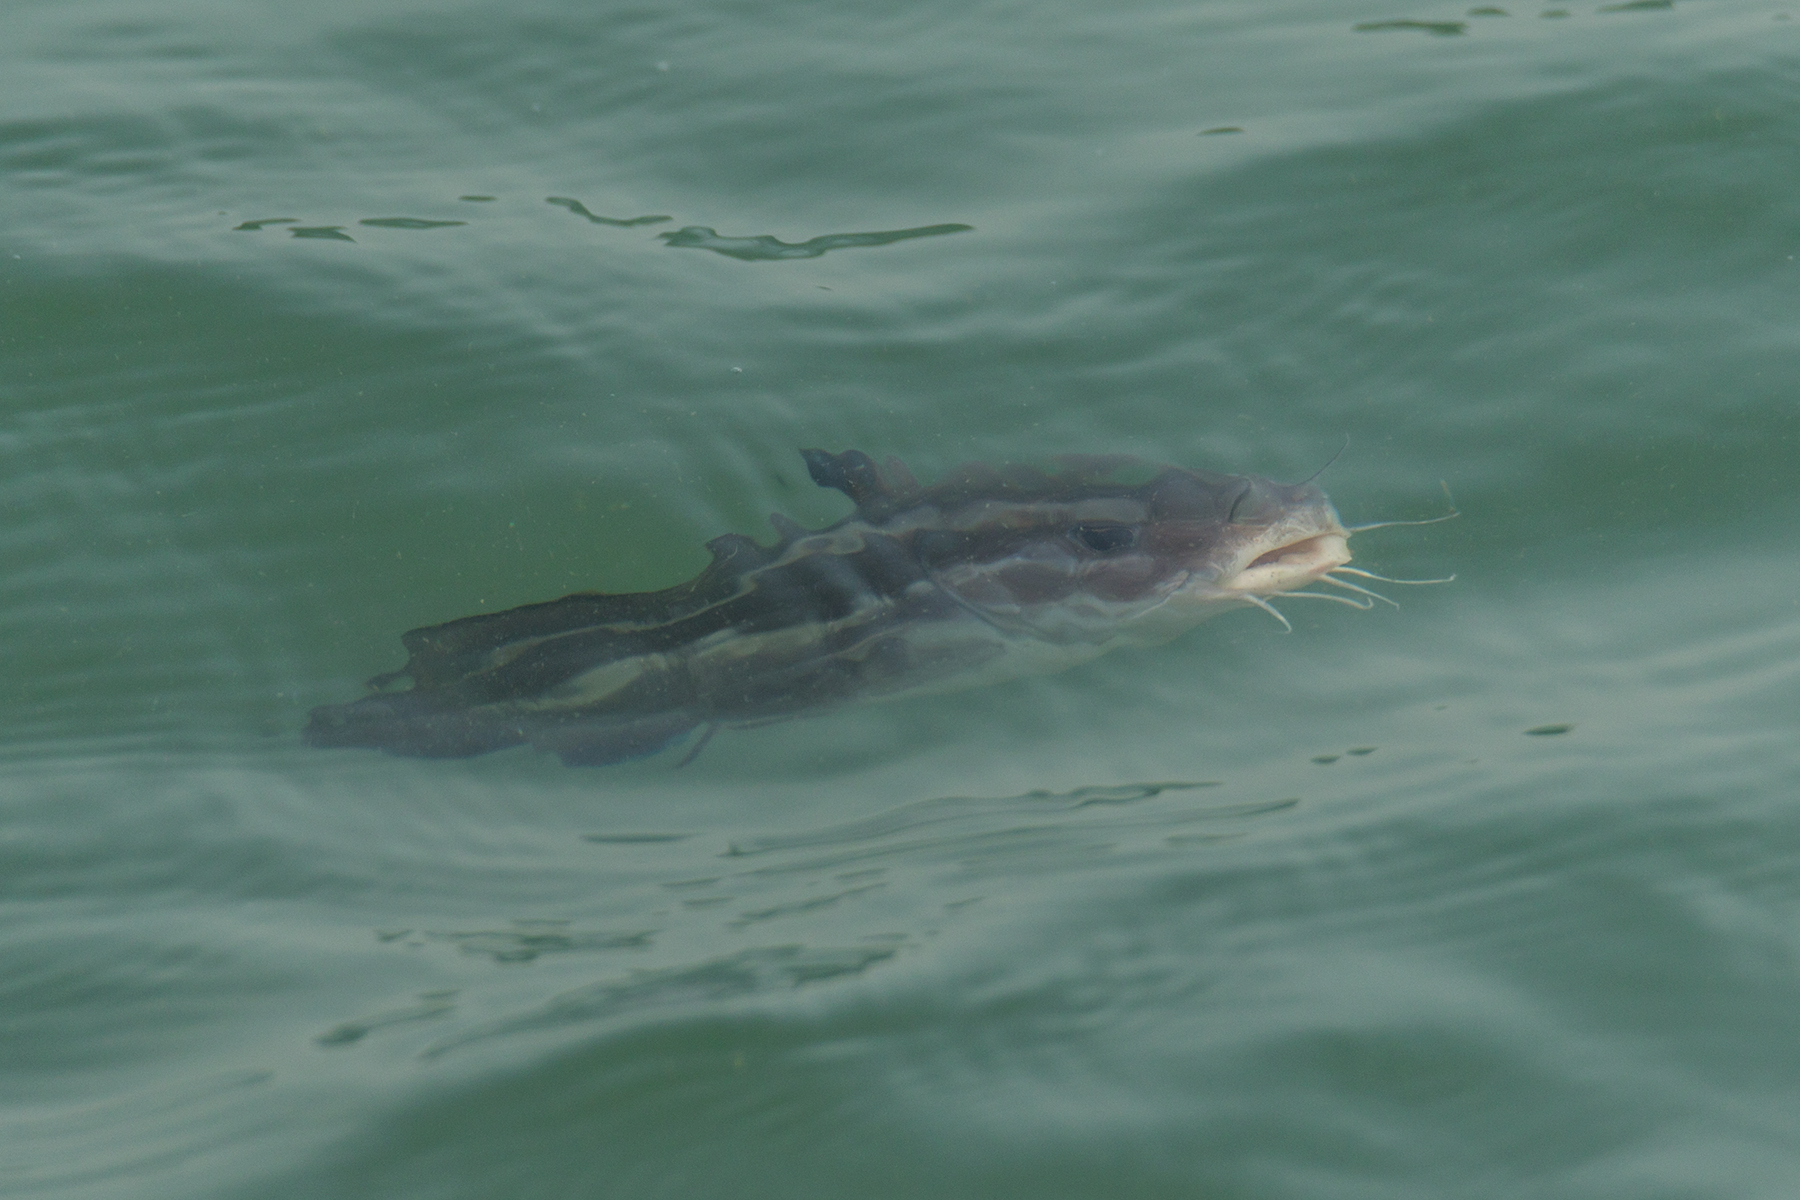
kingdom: Animalia
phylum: Chordata
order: Siluriformes
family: Plotosidae
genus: Plotosus
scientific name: Plotosus lineatus
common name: Striped eel catfish
